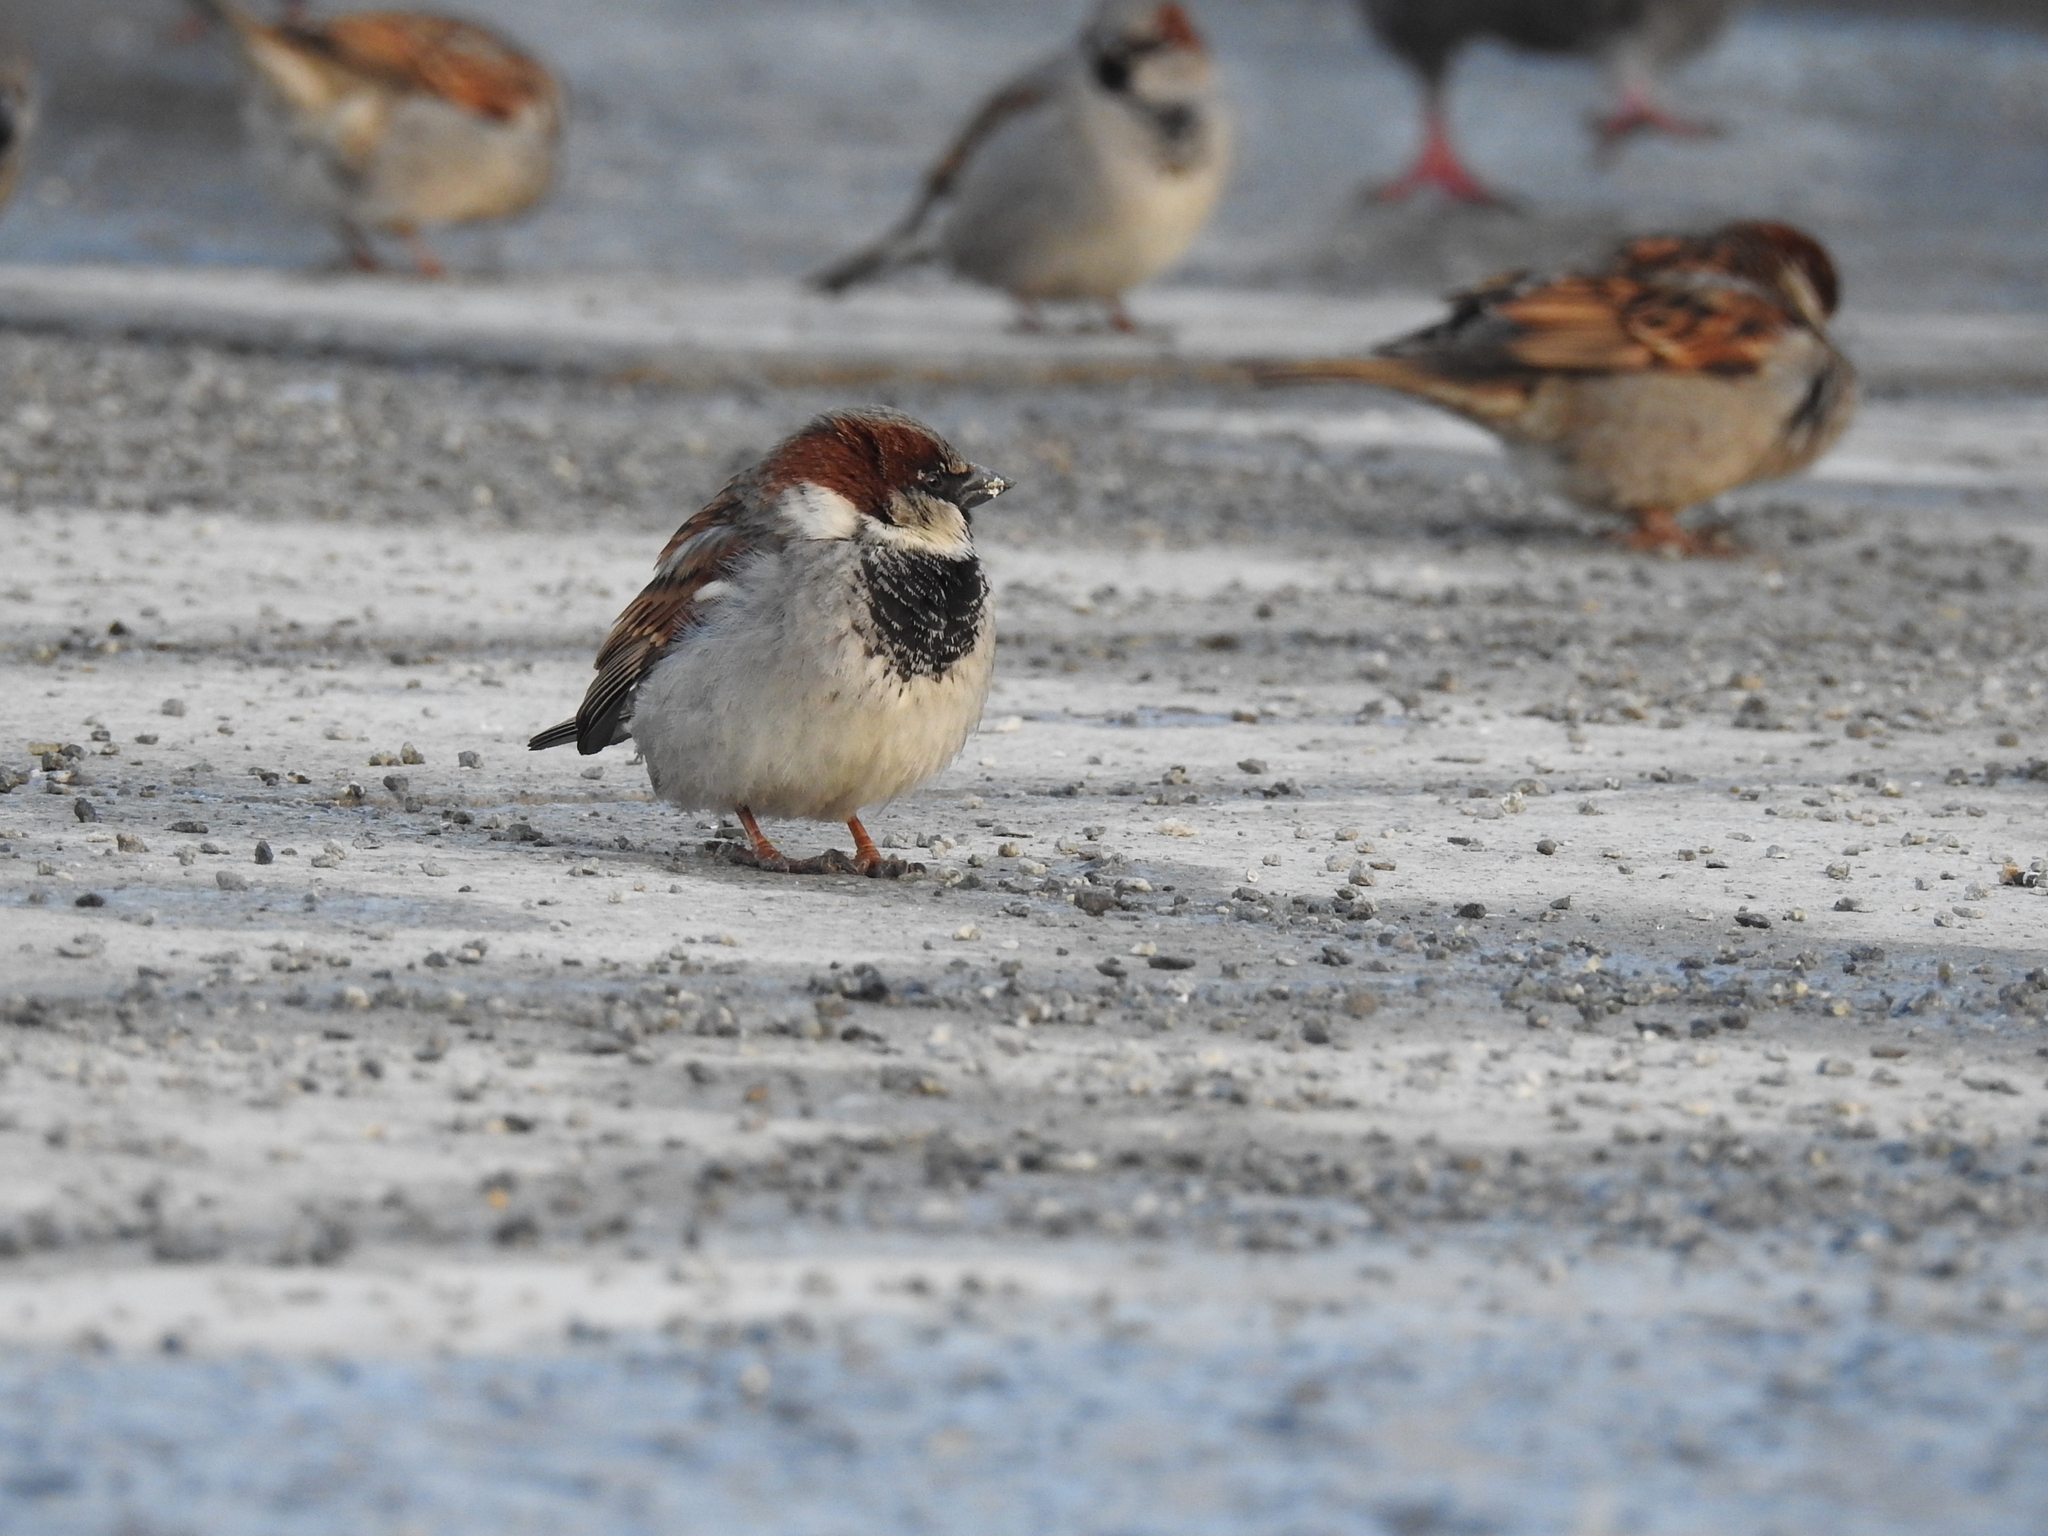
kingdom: Animalia
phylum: Chordata
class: Aves
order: Passeriformes
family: Passeridae
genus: Passer
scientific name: Passer domesticus
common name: House sparrow
